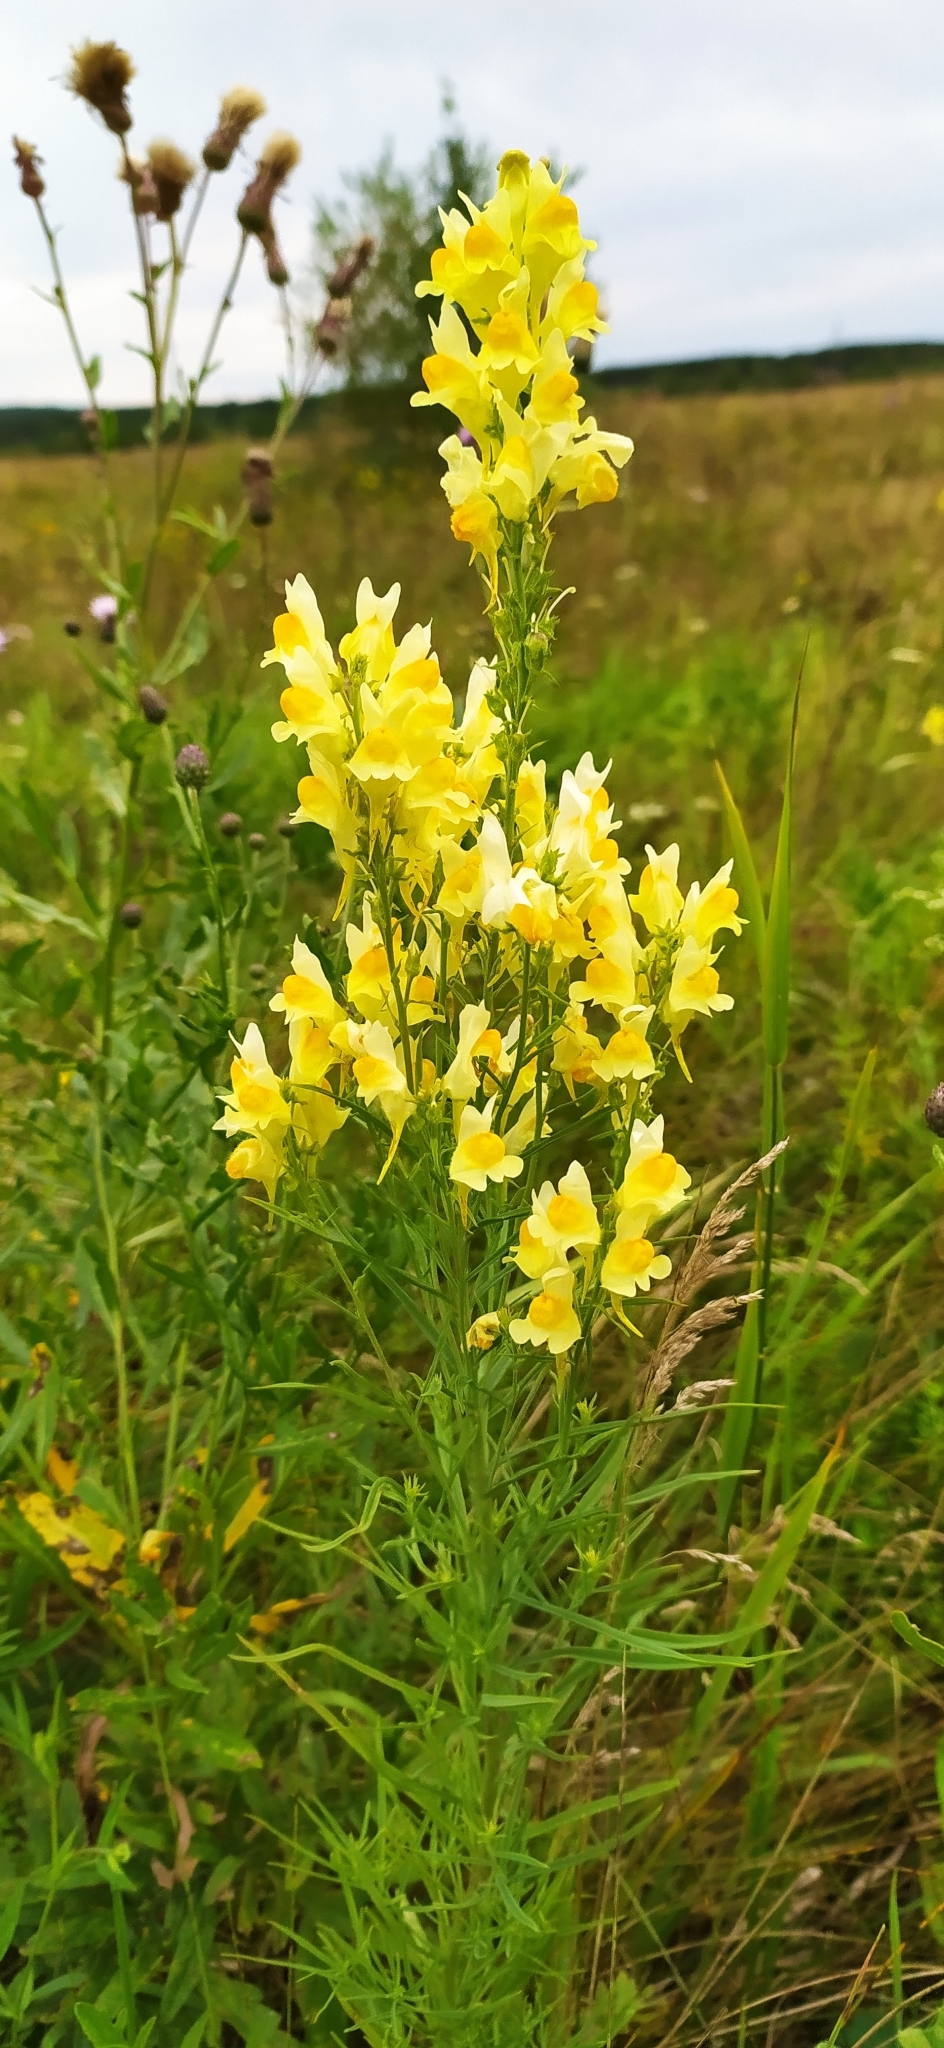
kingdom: Plantae
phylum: Tracheophyta
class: Magnoliopsida
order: Lamiales
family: Plantaginaceae
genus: Linaria
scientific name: Linaria vulgaris
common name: Butter and eggs
